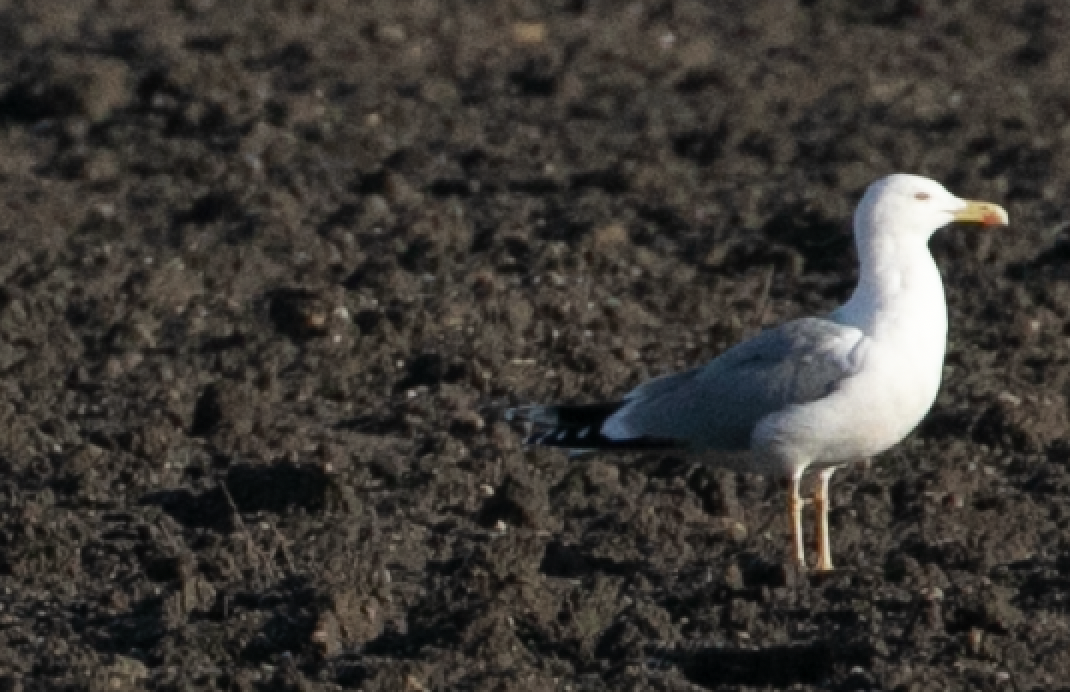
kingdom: Animalia
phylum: Chordata
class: Aves
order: Charadriiformes
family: Laridae
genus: Larus
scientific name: Larus michahellis
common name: Yellow-legged gull
